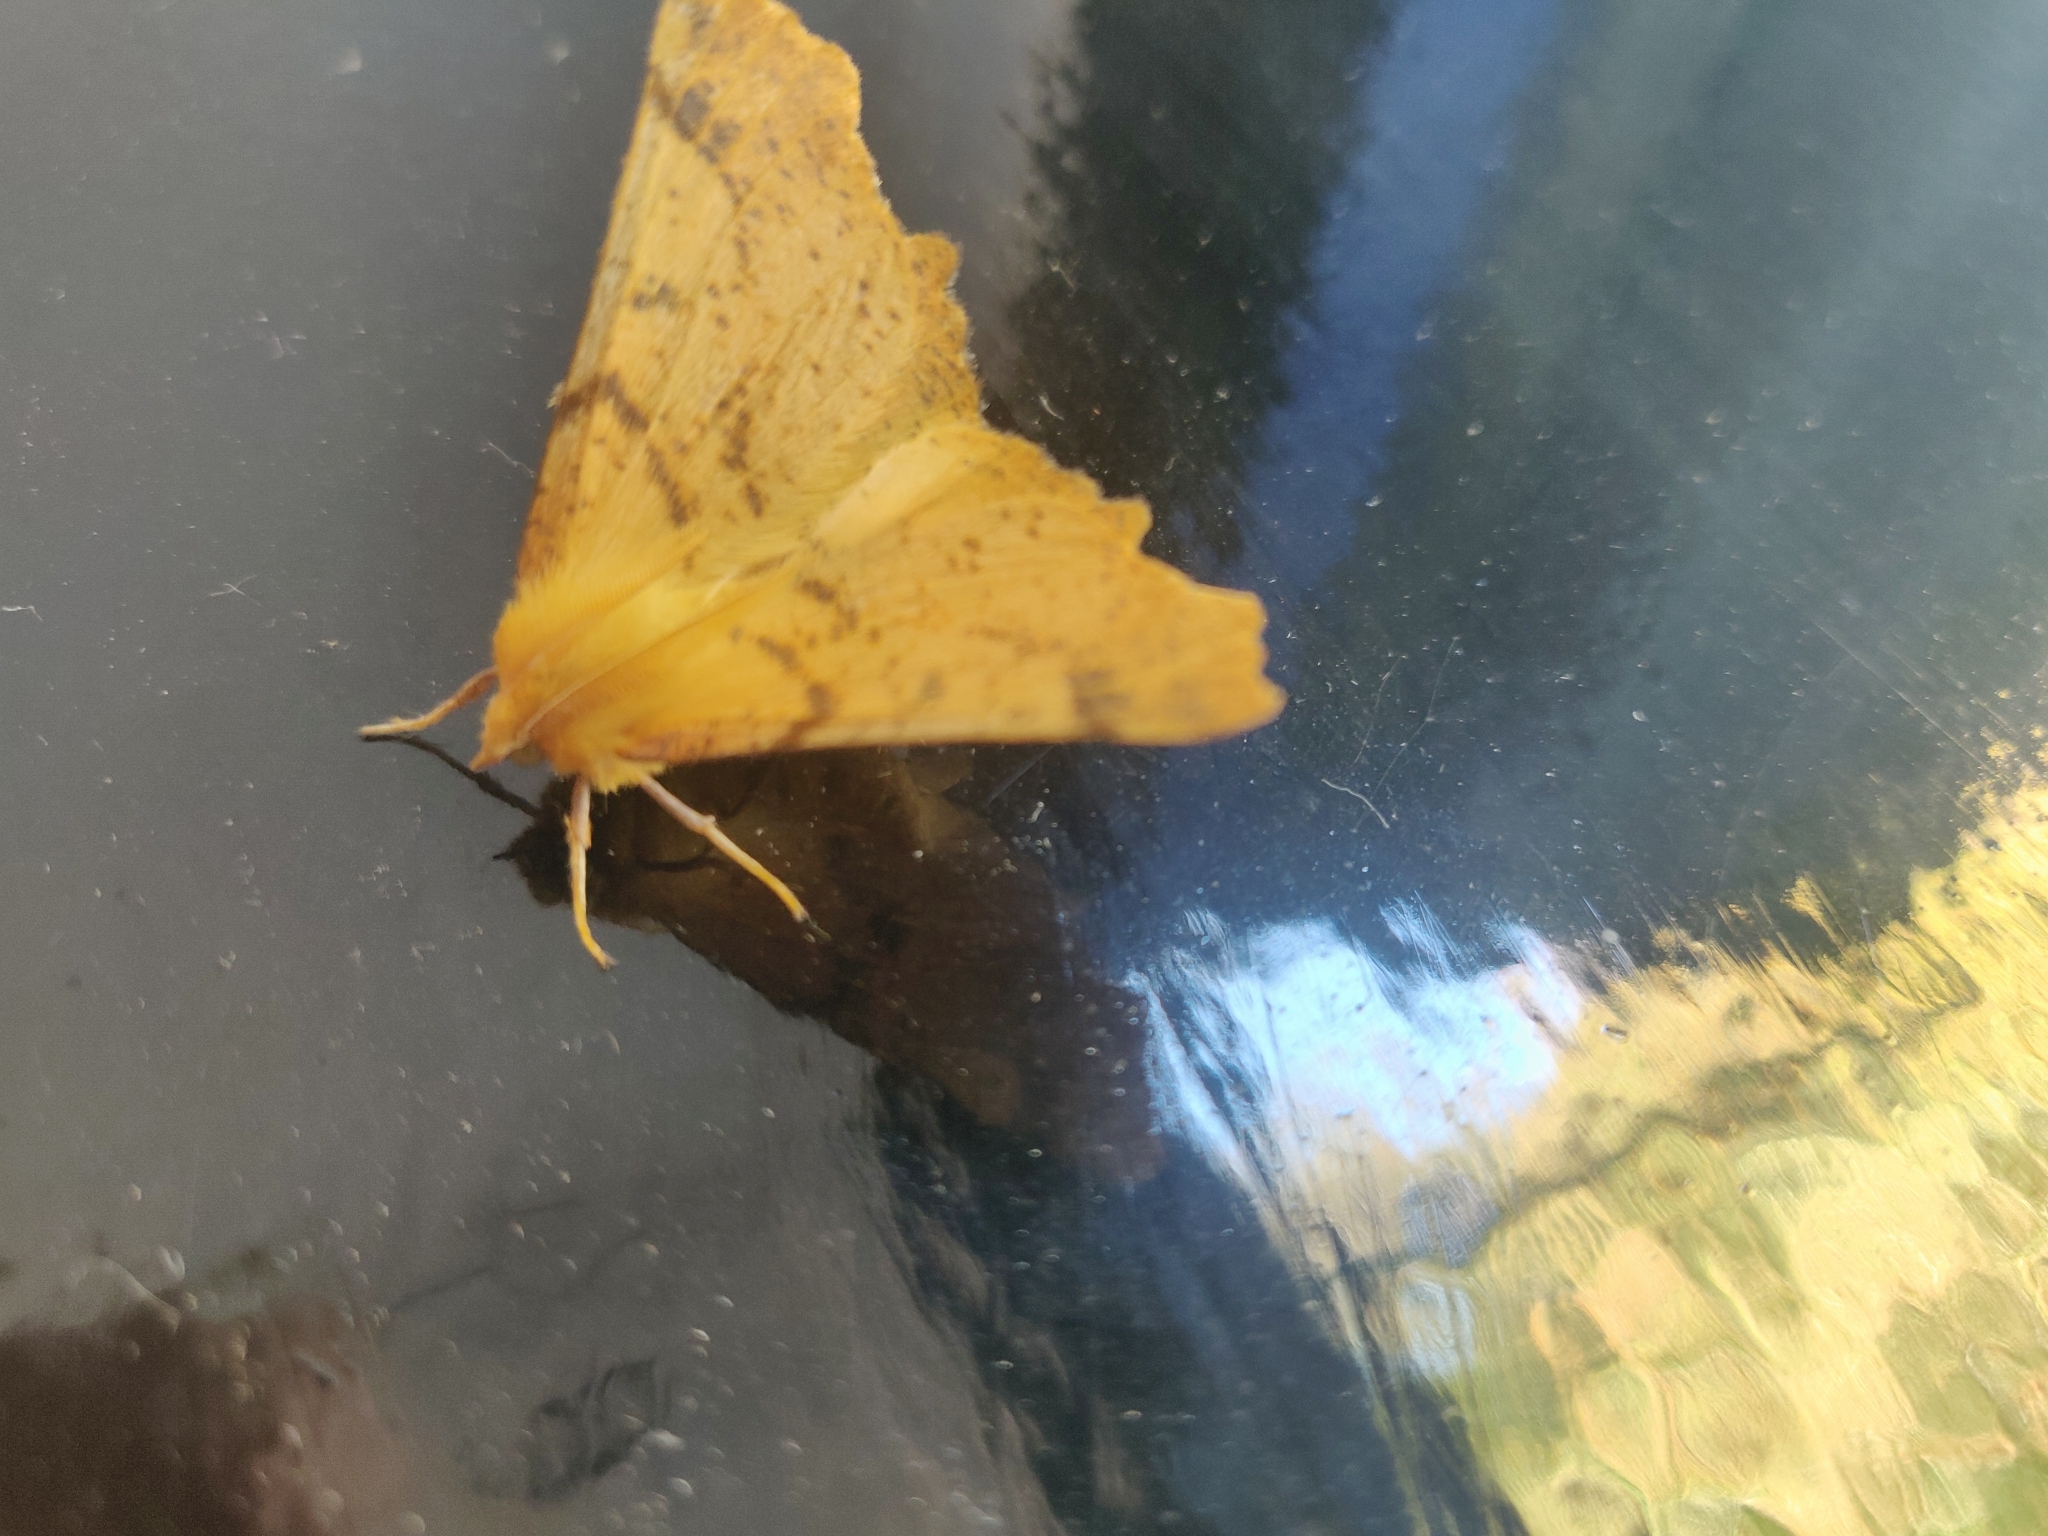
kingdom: Animalia
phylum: Arthropoda
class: Insecta
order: Lepidoptera
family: Geometridae
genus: Ennomos
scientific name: Ennomos autumnaria
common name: Large thorn
